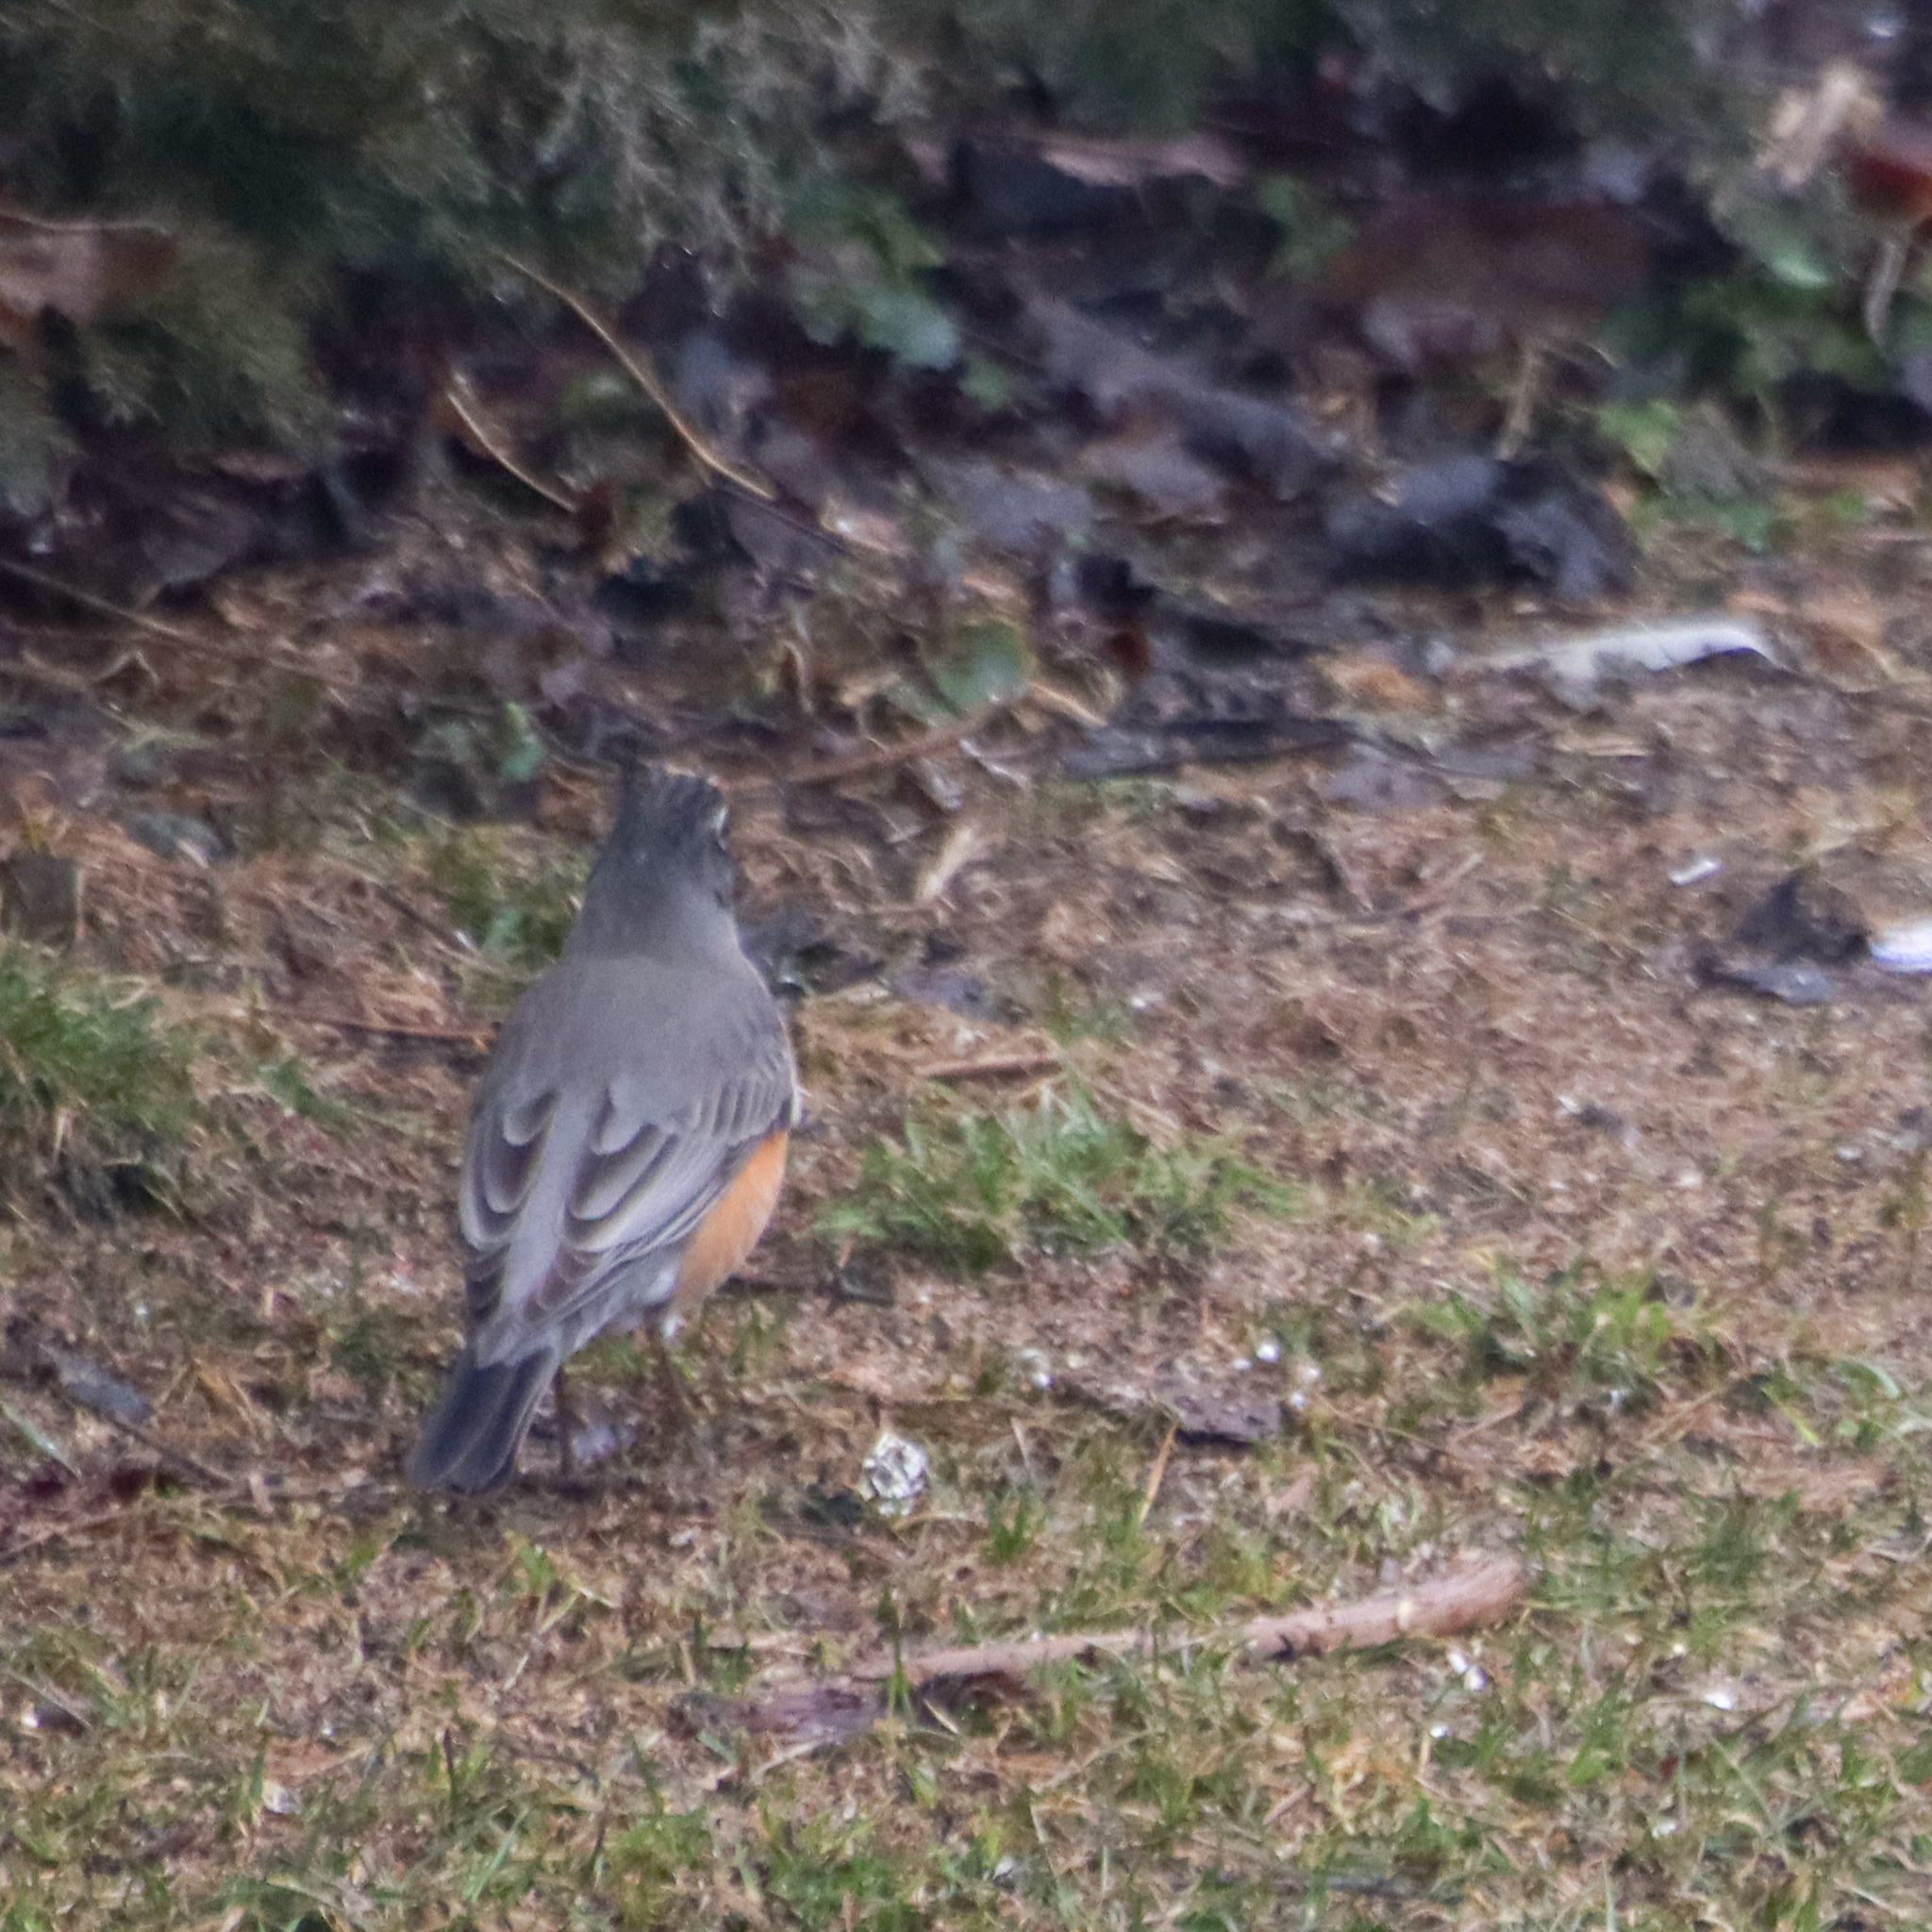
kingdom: Animalia
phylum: Chordata
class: Aves
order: Passeriformes
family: Turdidae
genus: Turdus
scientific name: Turdus migratorius
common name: American robin
